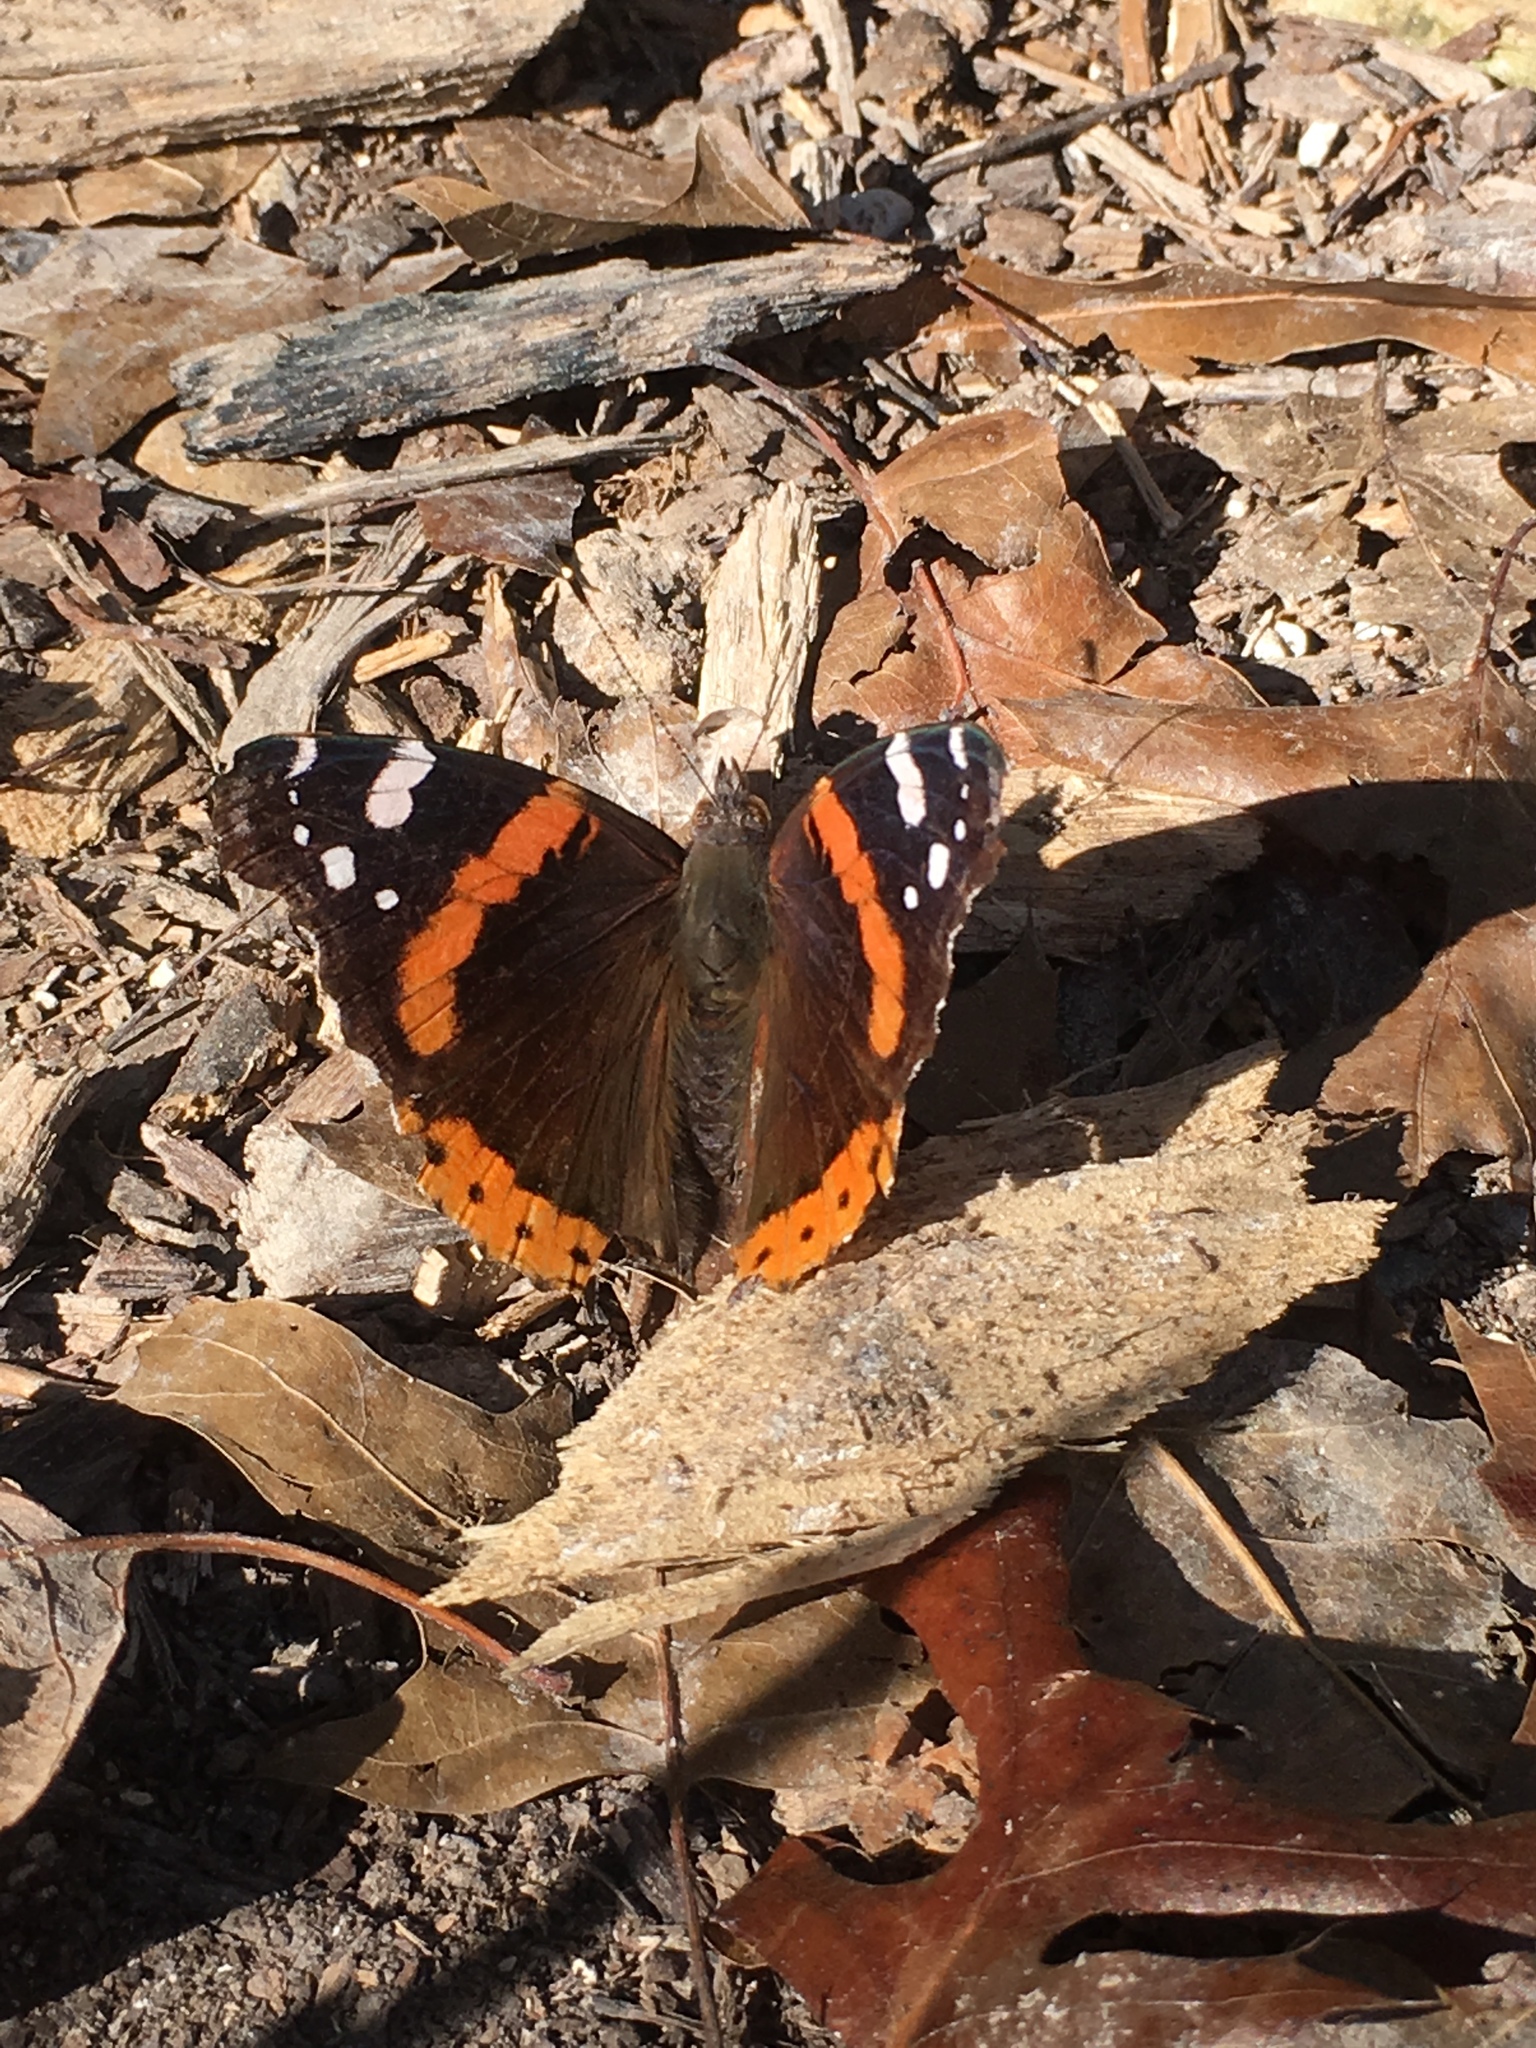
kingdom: Animalia
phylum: Arthropoda
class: Insecta
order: Lepidoptera
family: Nymphalidae
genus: Vanessa
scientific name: Vanessa atalanta
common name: Red admiral
